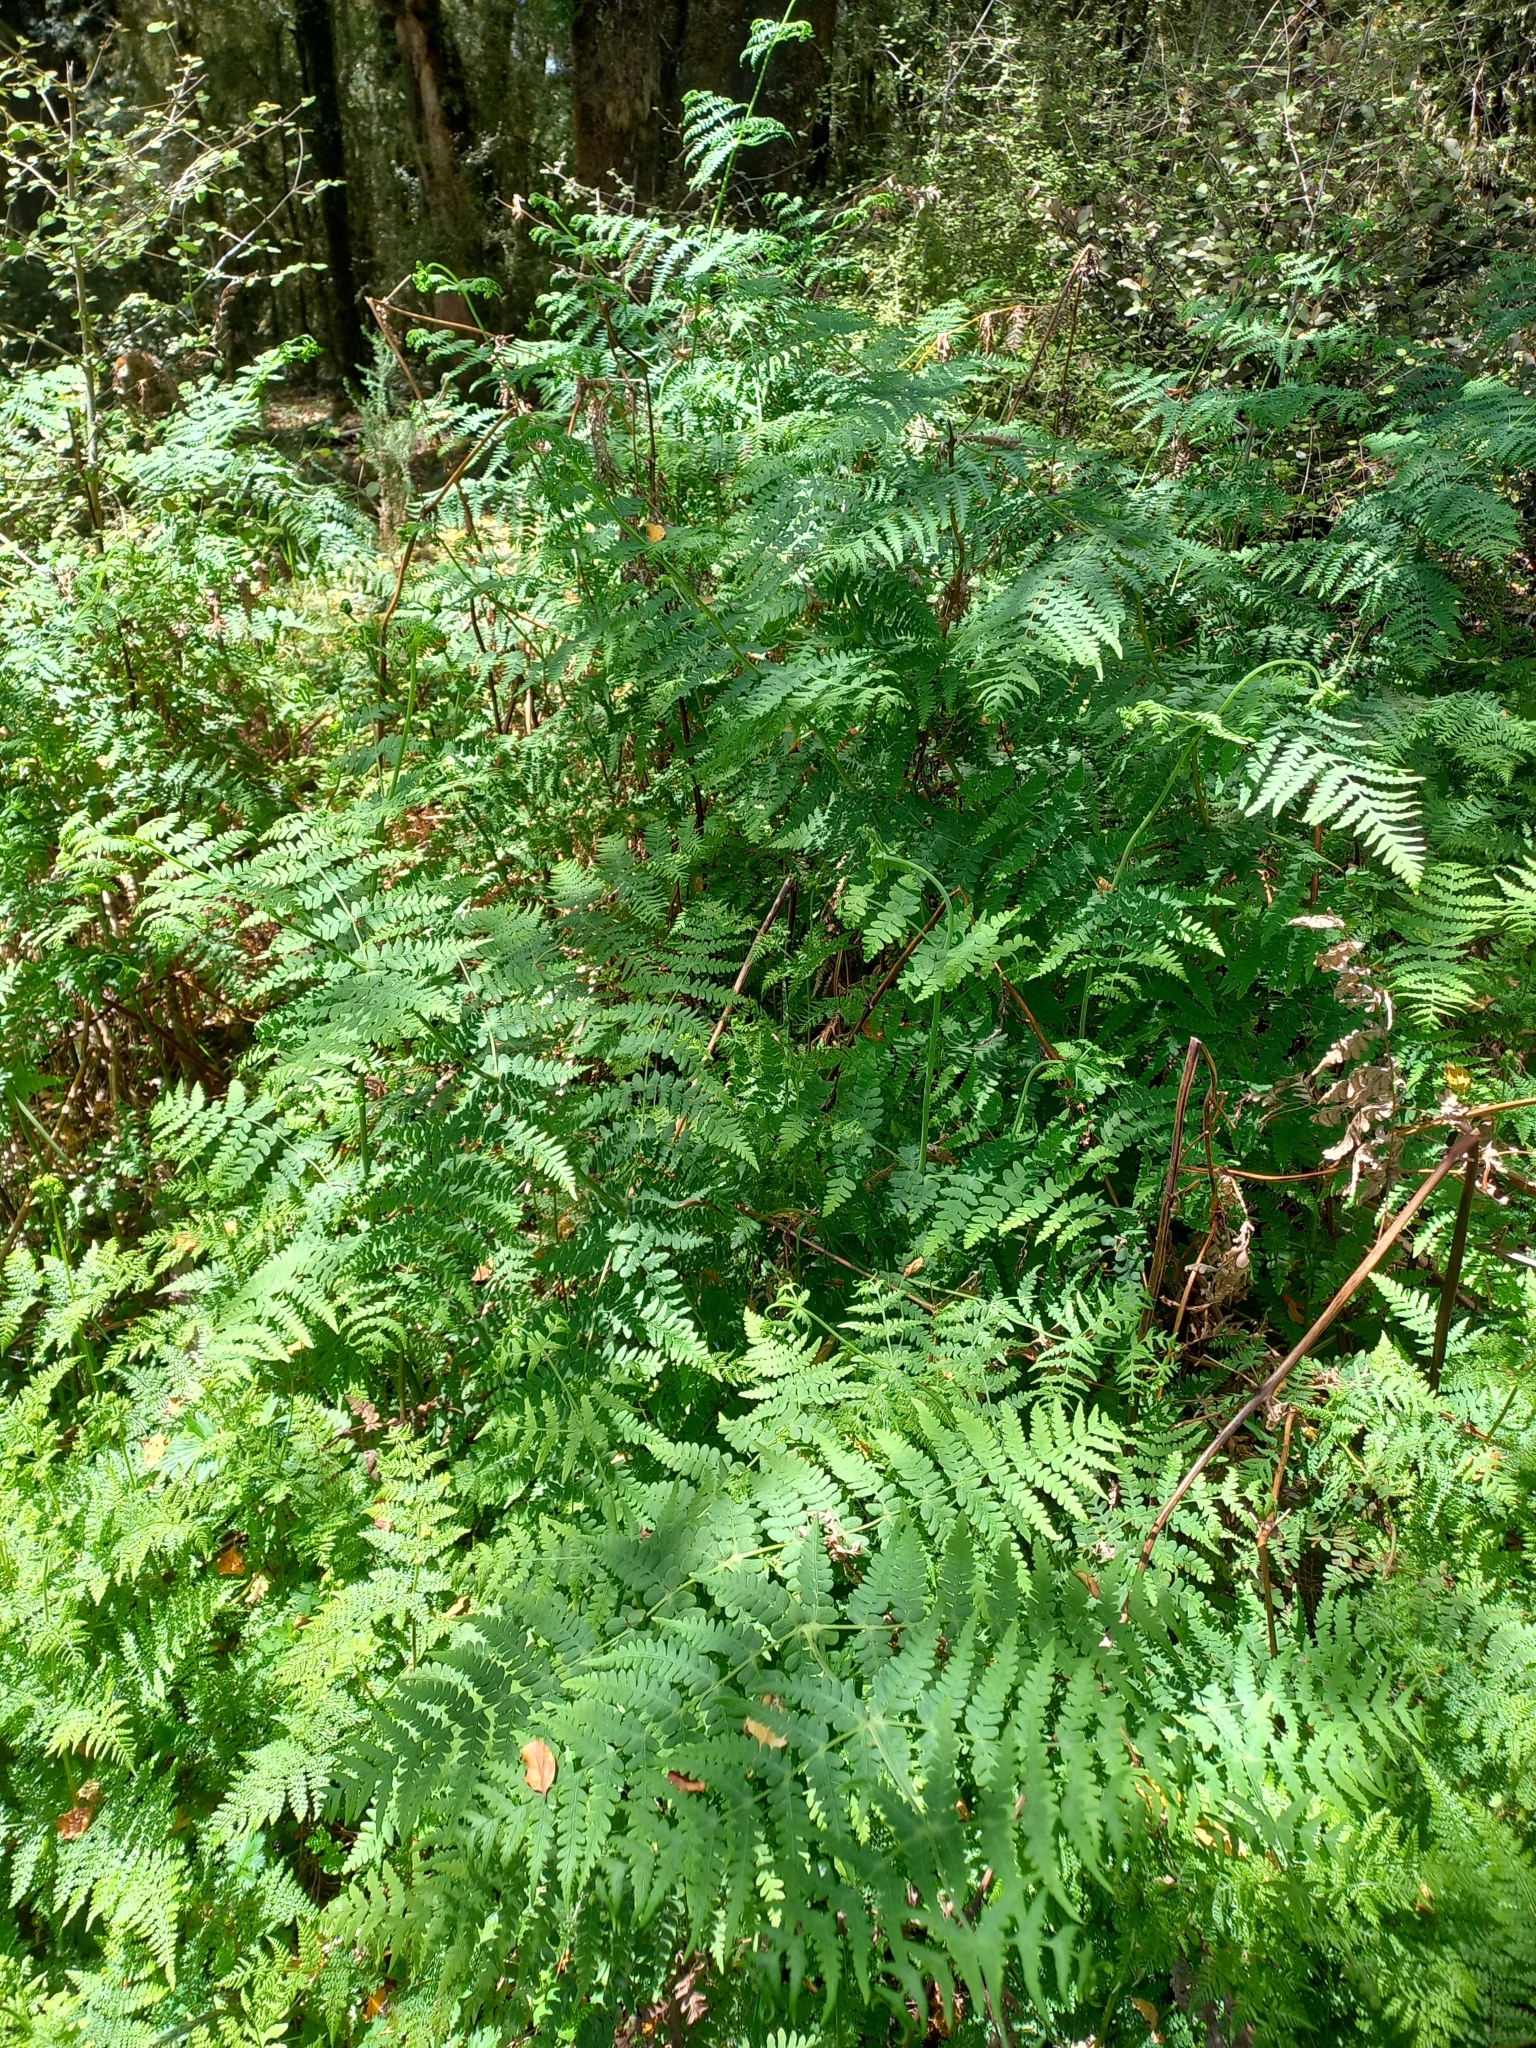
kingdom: Plantae
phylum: Tracheophyta
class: Polypodiopsida
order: Polypodiales
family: Dennstaedtiaceae
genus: Histiopteris
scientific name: Histiopteris incisa
